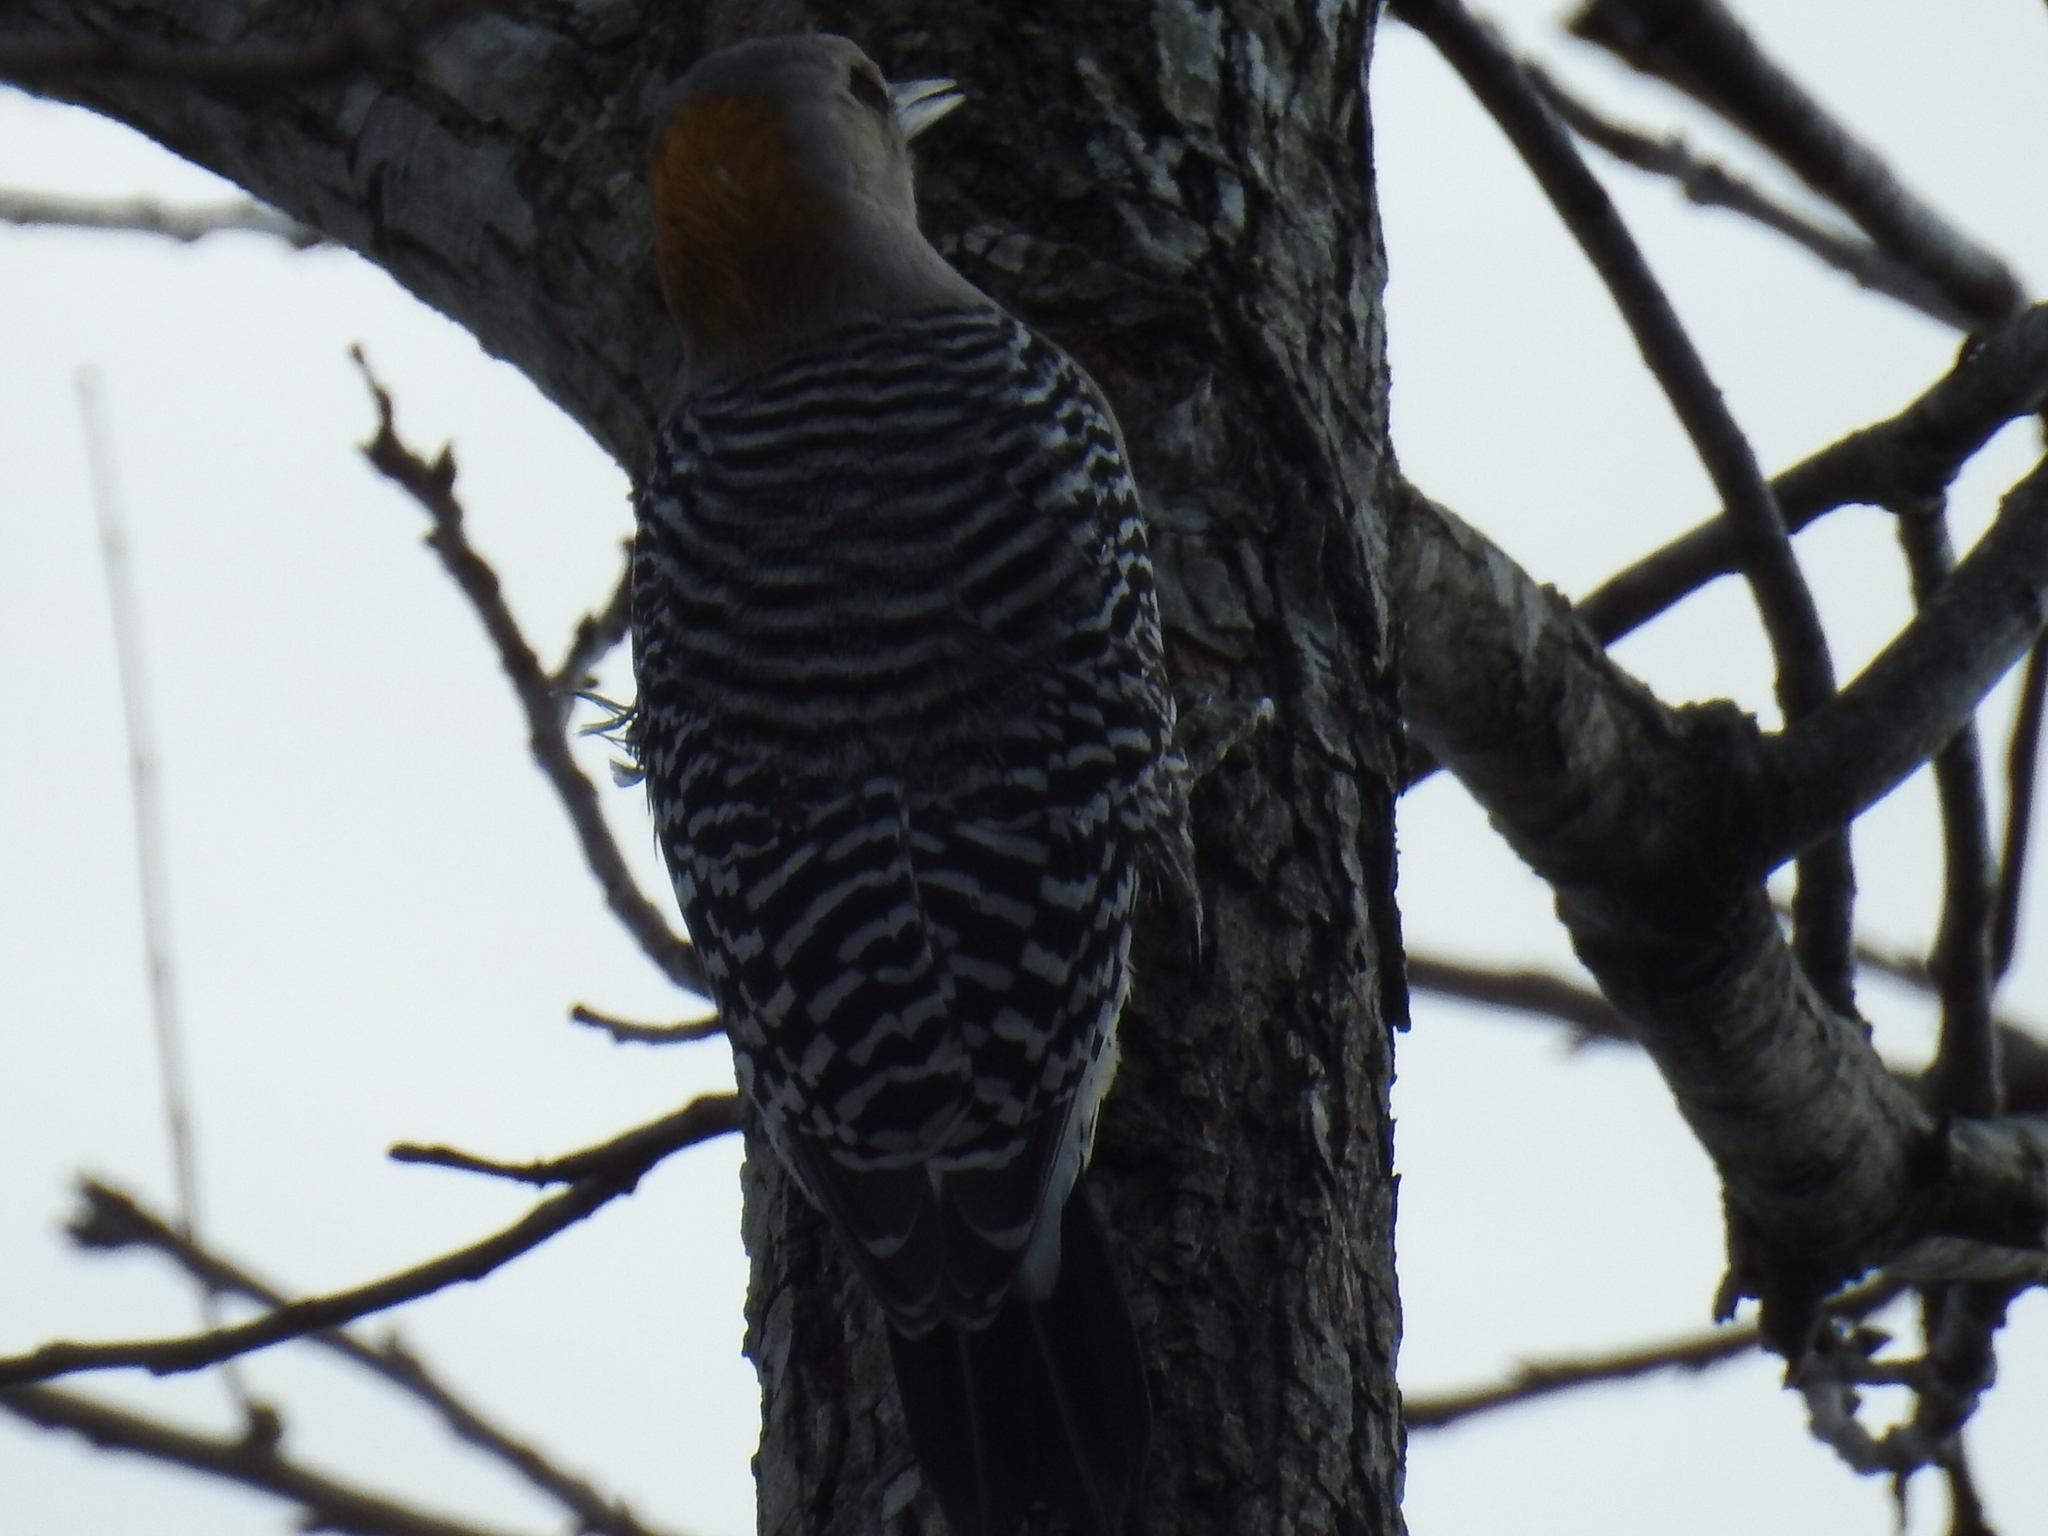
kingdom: Animalia
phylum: Chordata
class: Aves
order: Piciformes
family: Picidae
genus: Melanerpes
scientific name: Melanerpes aurifrons
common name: Golden-fronted woodpecker
